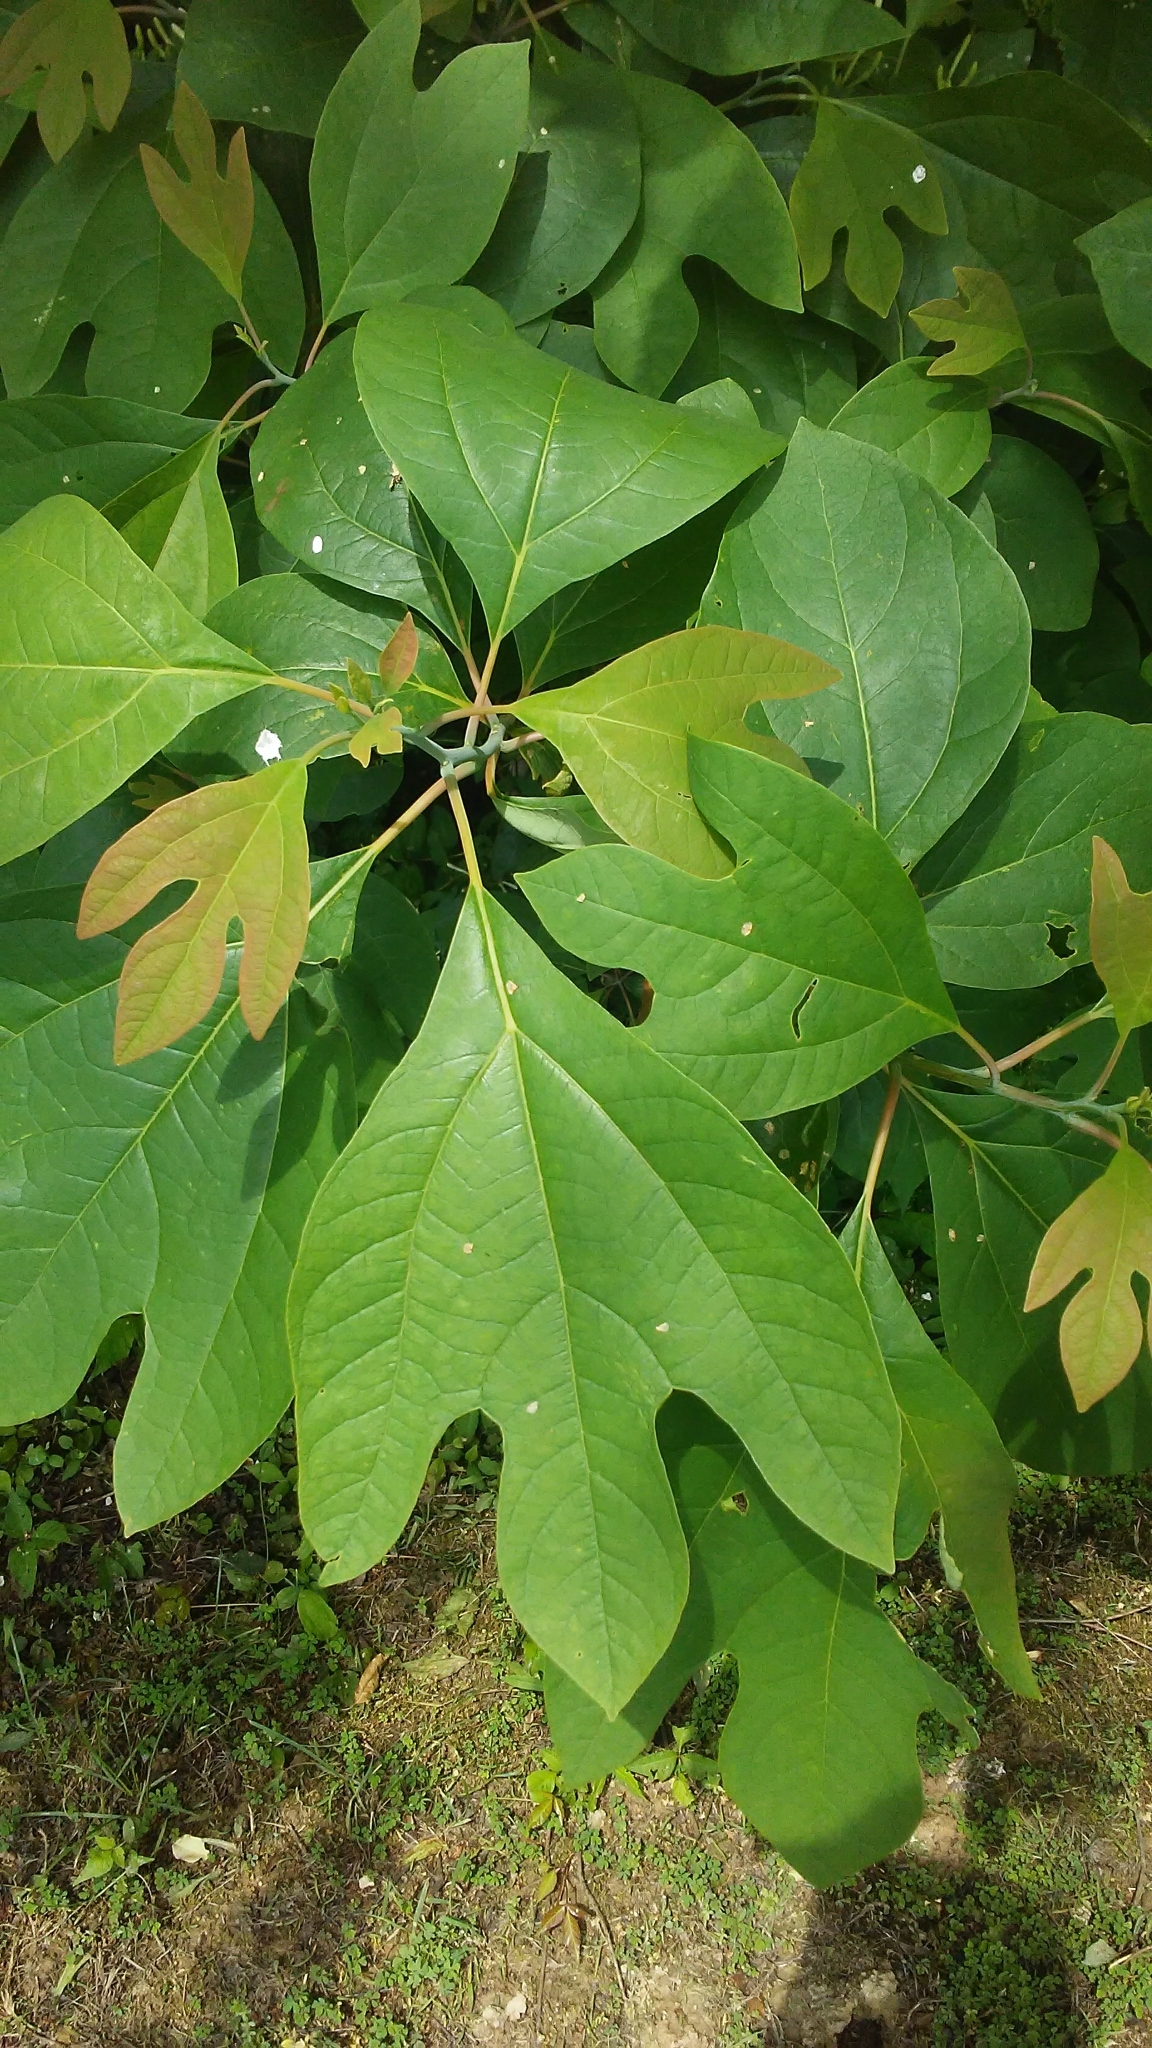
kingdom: Plantae
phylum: Tracheophyta
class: Magnoliopsida
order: Laurales
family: Lauraceae
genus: Sassafras
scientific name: Sassafras albidum
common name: Sassafras
